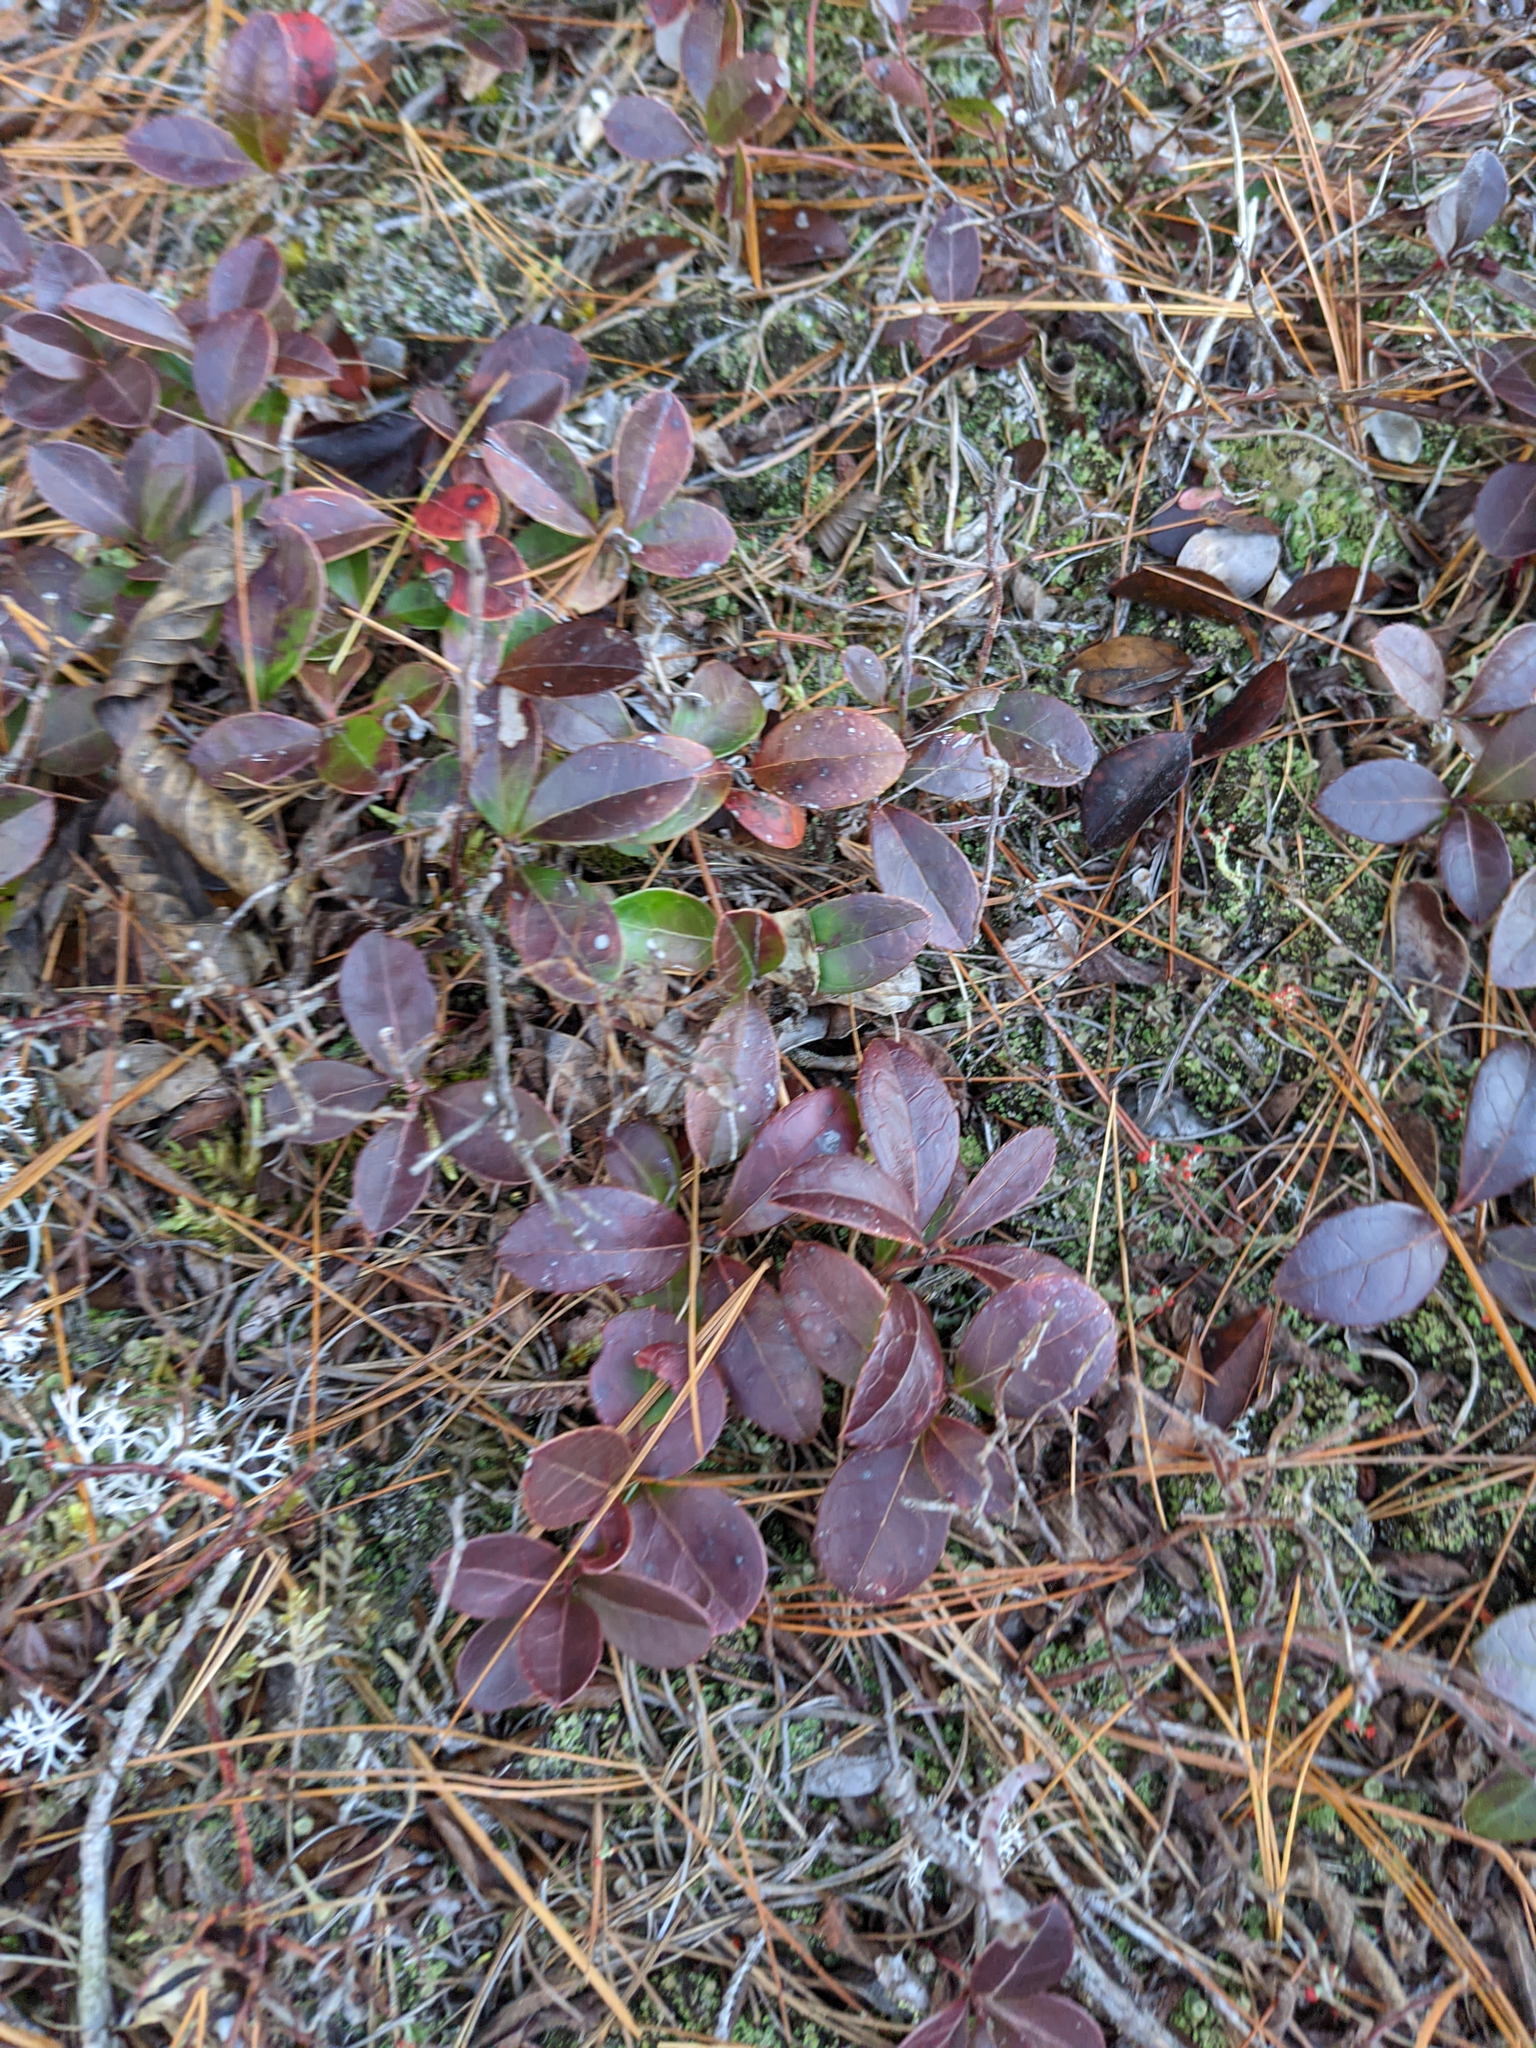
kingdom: Plantae
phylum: Tracheophyta
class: Magnoliopsida
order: Ericales
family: Ericaceae
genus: Gaultheria
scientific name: Gaultheria procumbens
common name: Checkerberry
